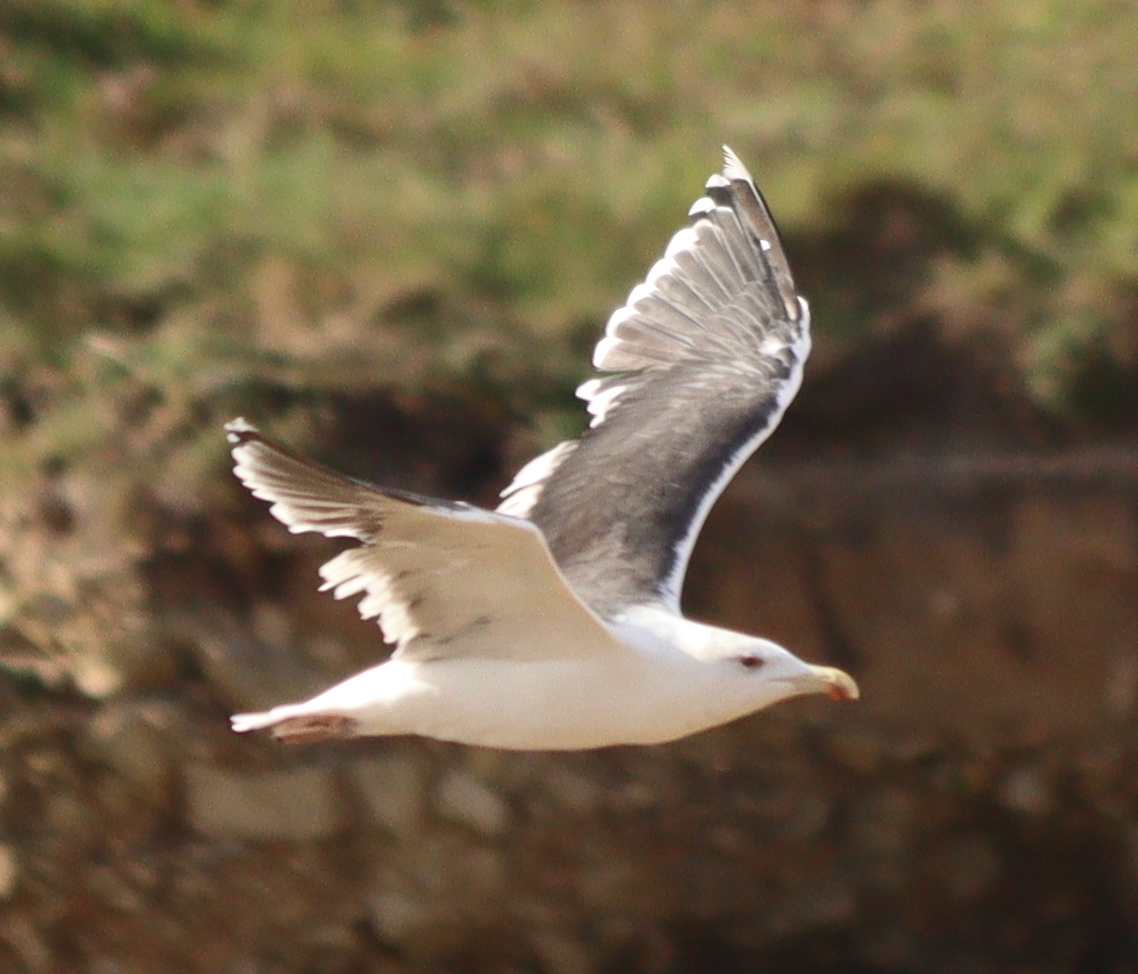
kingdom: Animalia
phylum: Chordata
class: Aves
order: Charadriiformes
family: Laridae
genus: Larus
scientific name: Larus marinus
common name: Great black-backed gull
